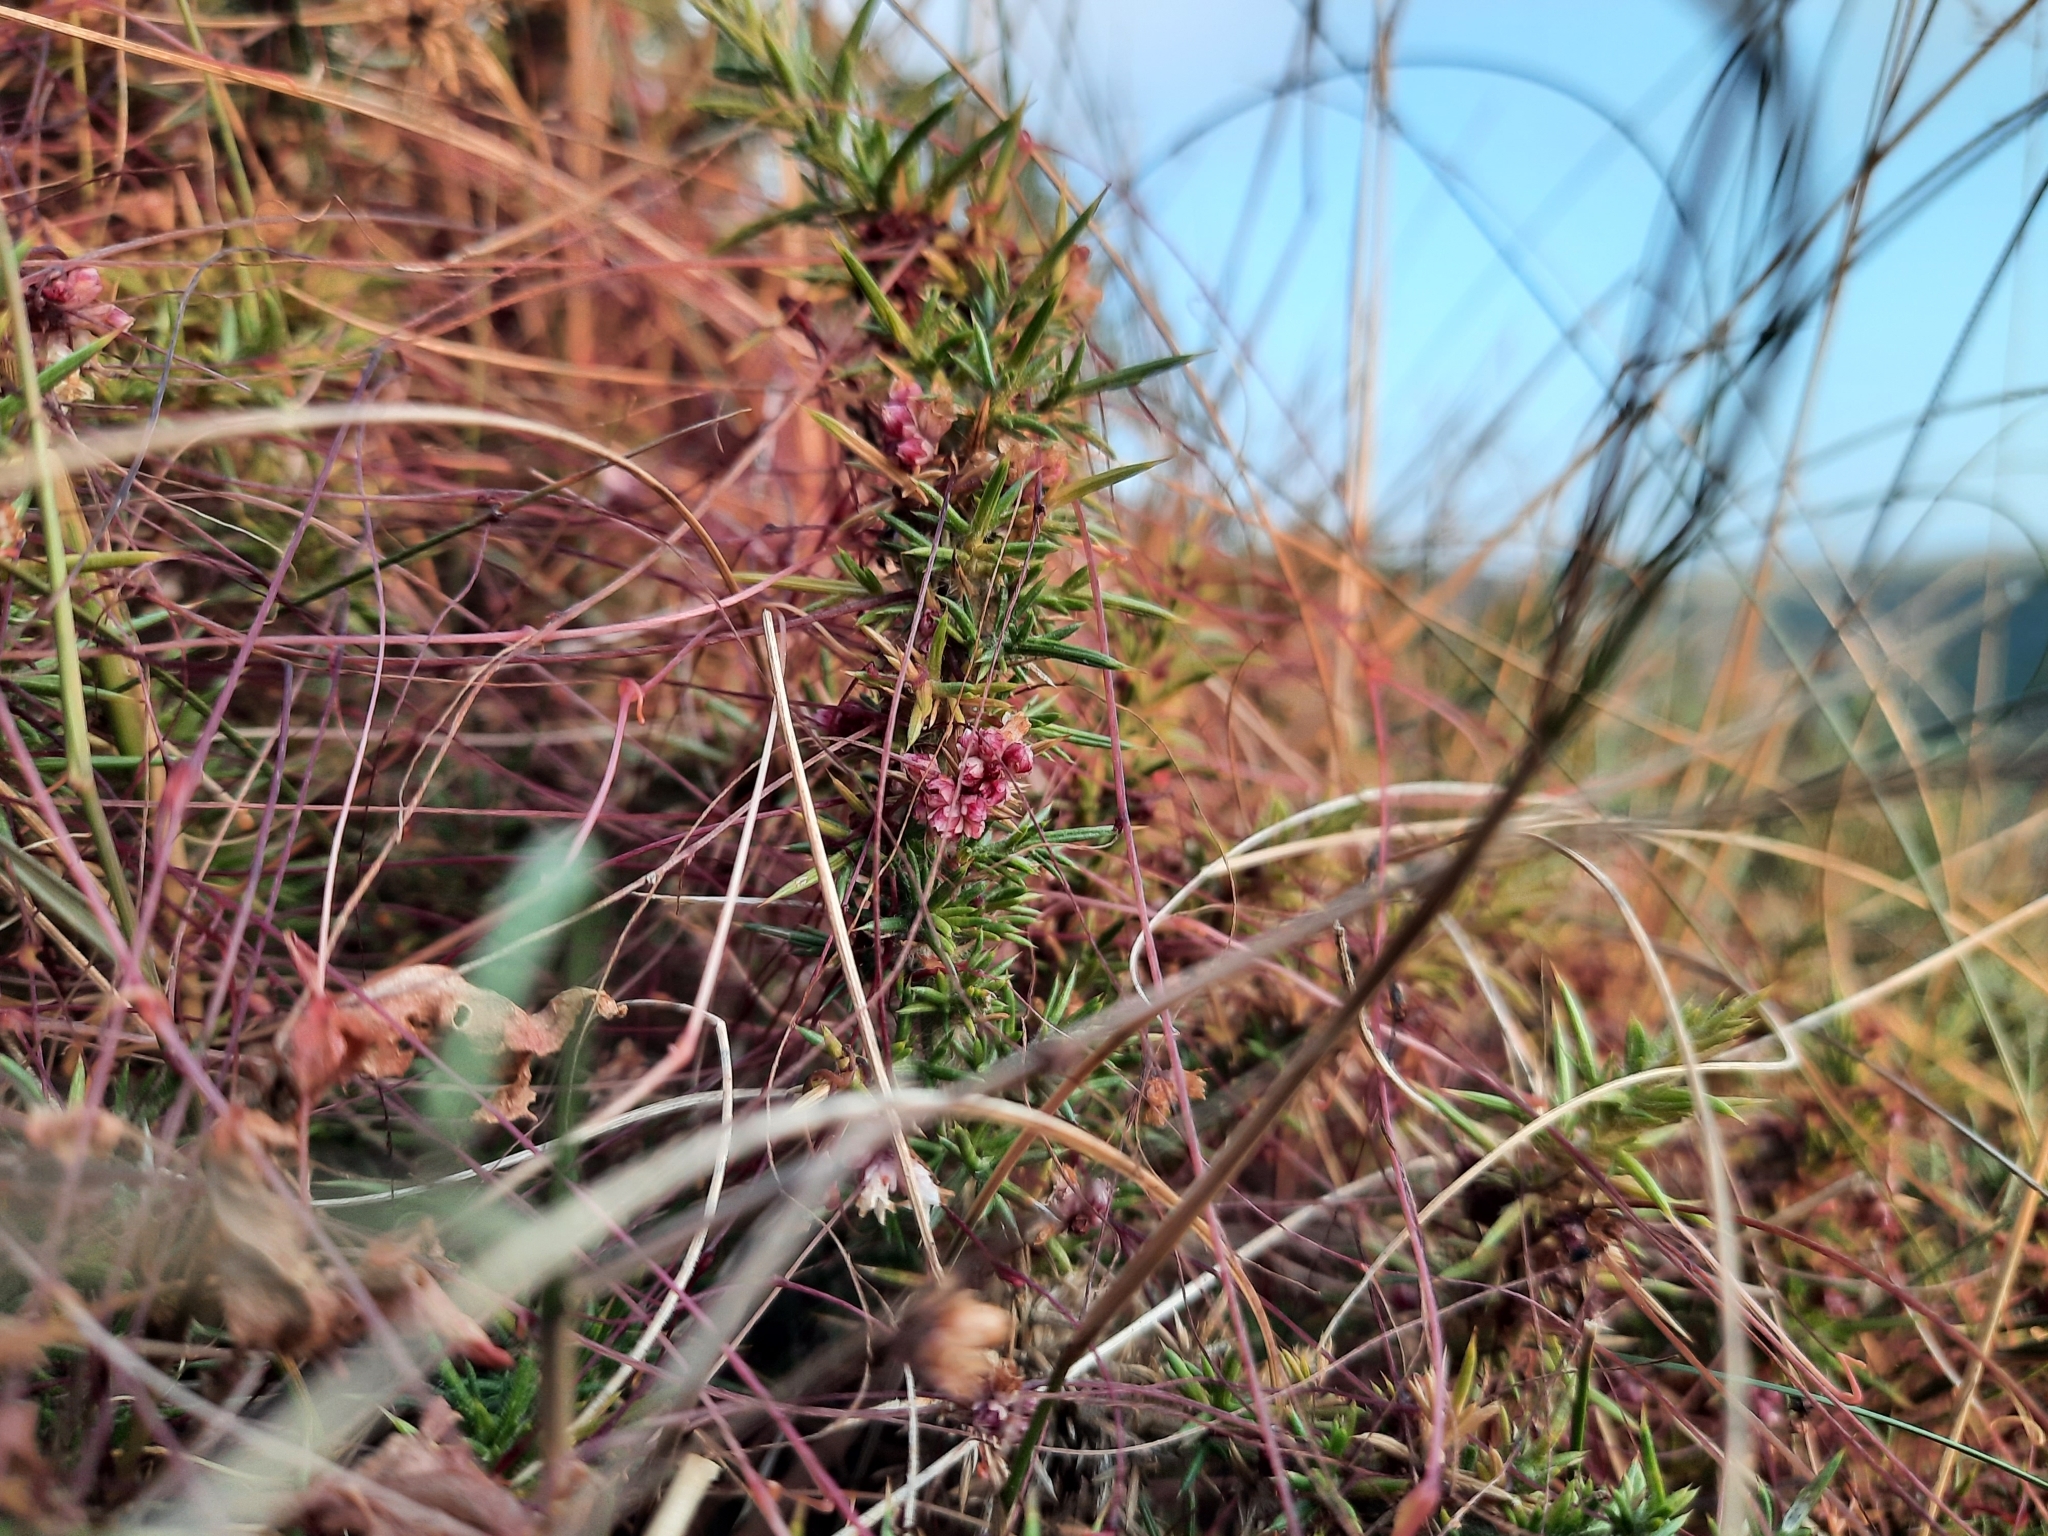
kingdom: Plantae
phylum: Tracheophyta
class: Magnoliopsida
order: Solanales
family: Convolvulaceae
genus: Cuscuta
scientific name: Cuscuta epithymum
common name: Clover dodder
